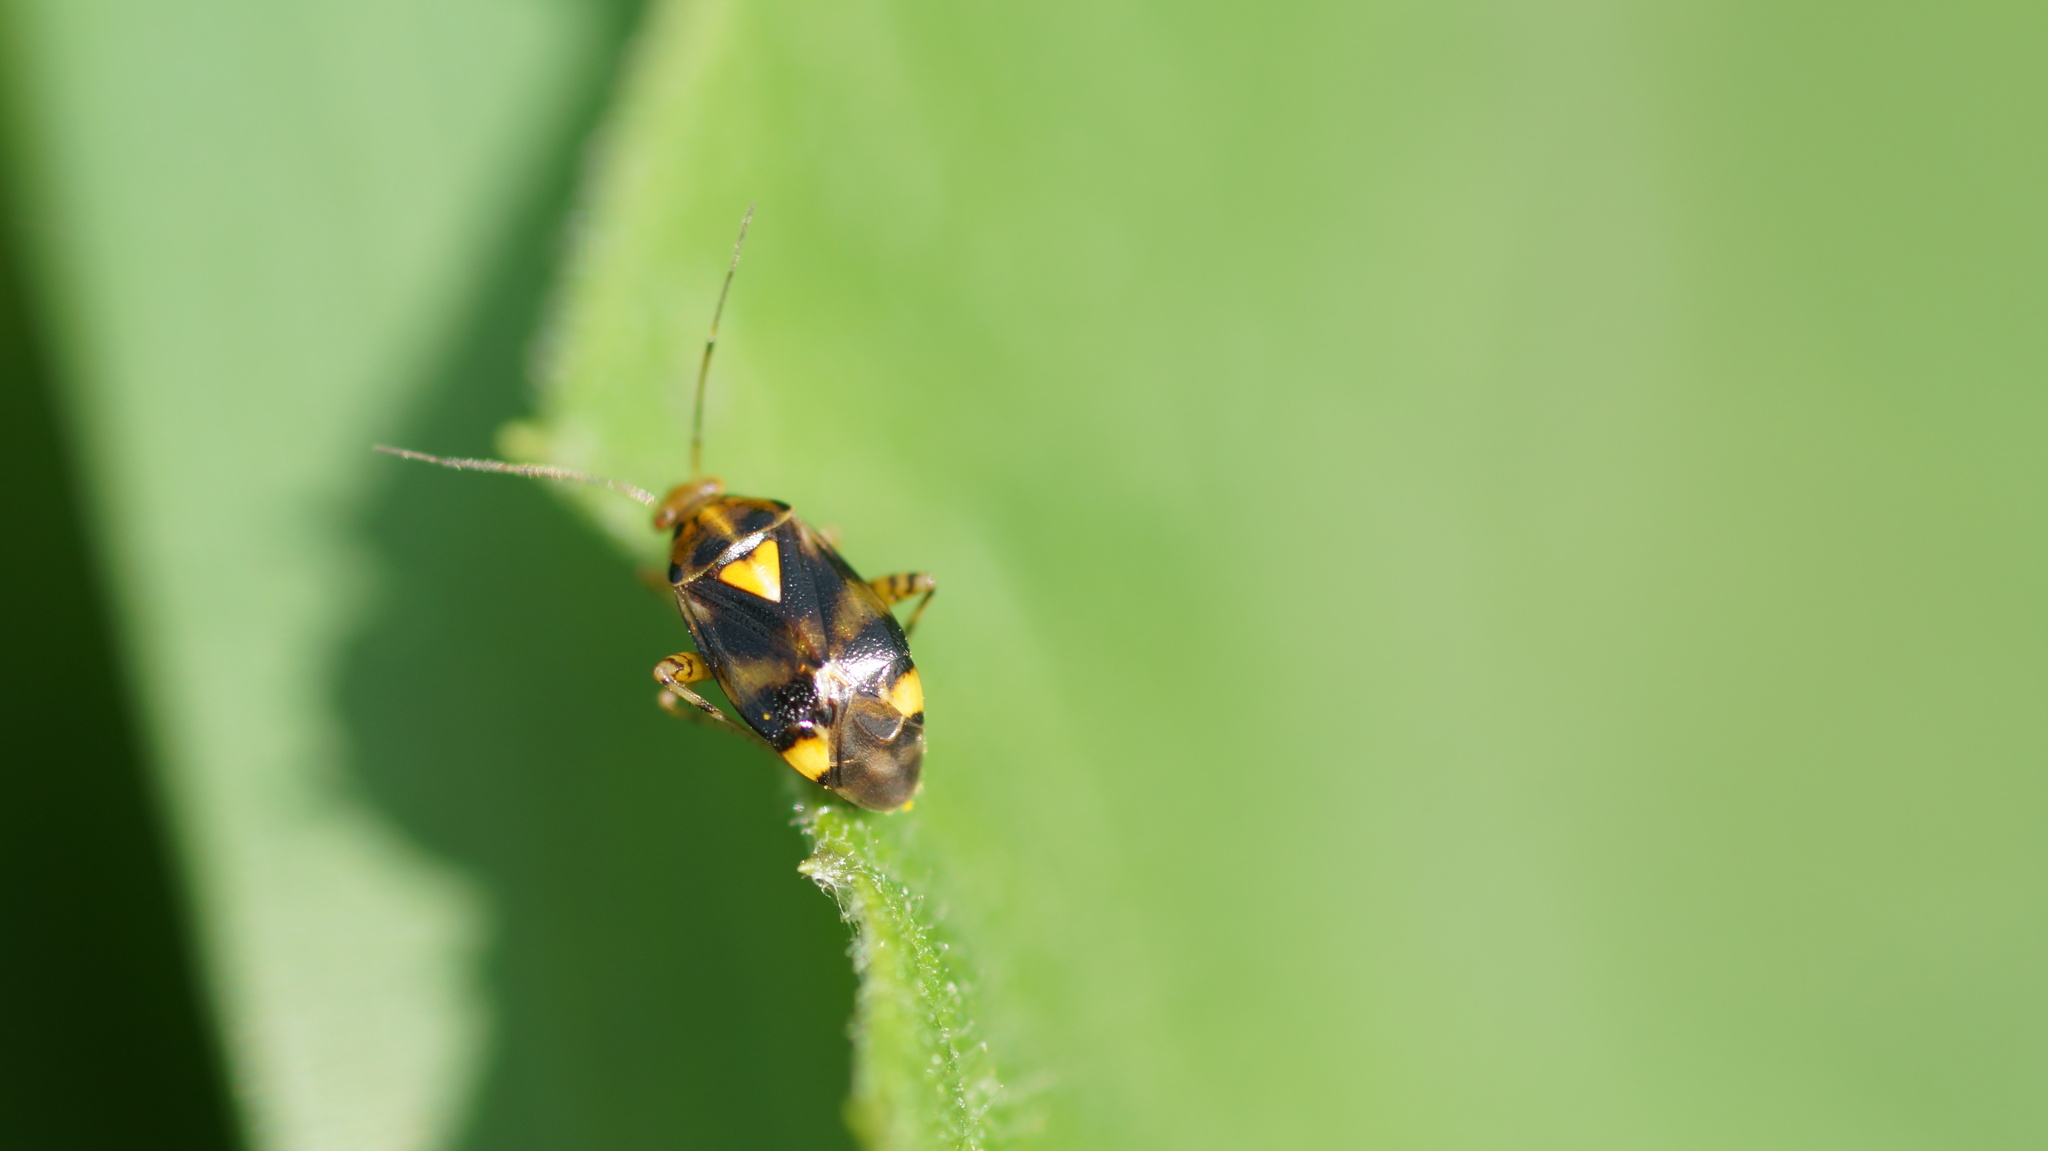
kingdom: Animalia
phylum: Arthropoda
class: Insecta
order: Hemiptera
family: Miridae
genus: Liocoris
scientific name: Liocoris tripustulatus
